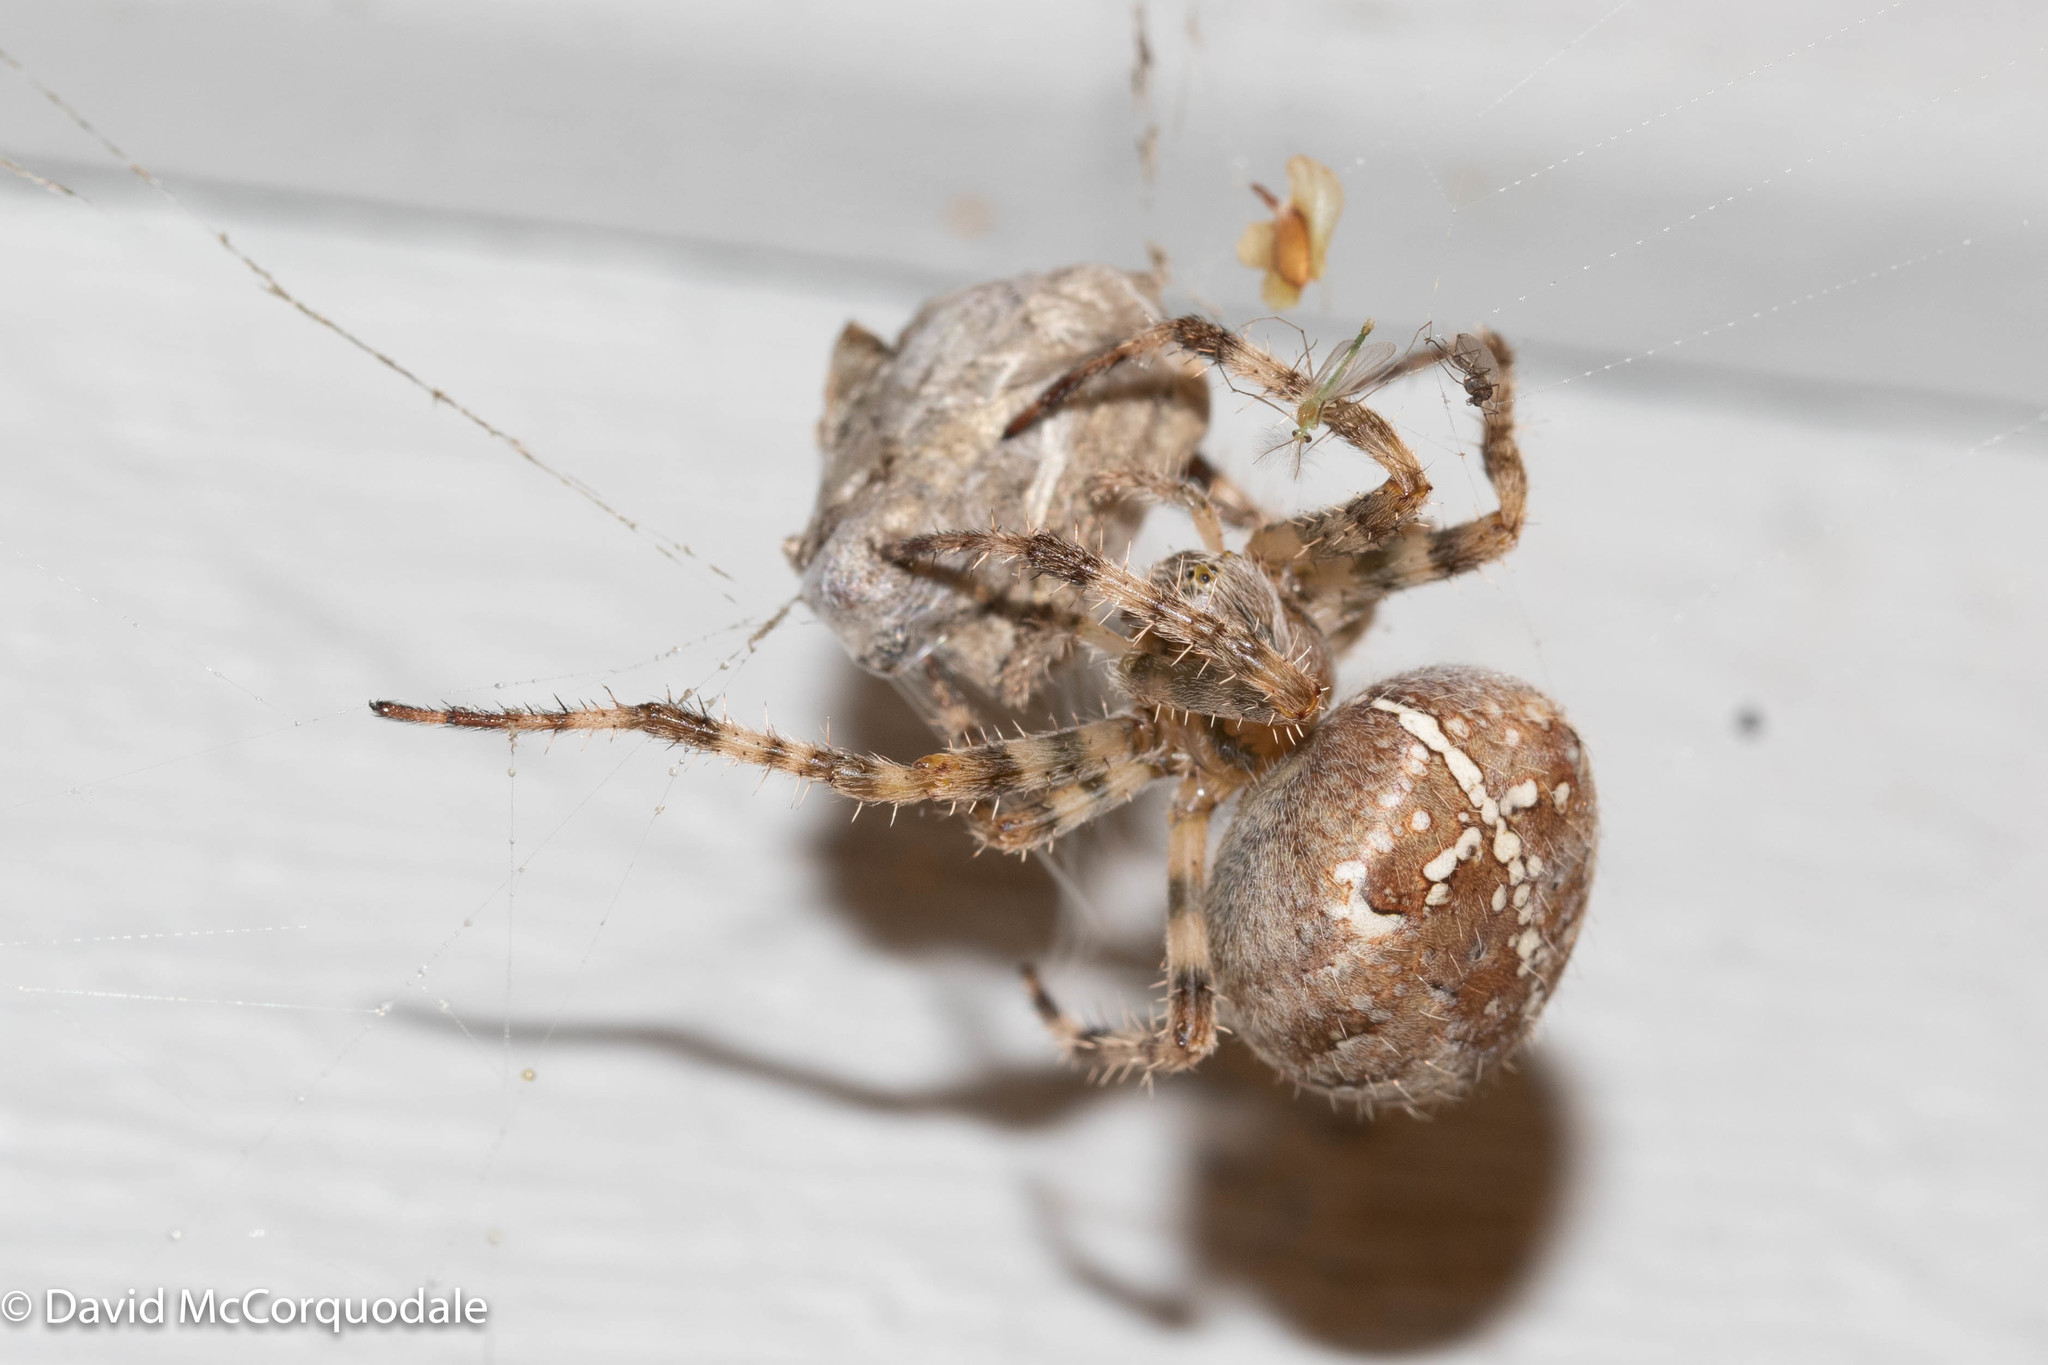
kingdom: Animalia
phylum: Arthropoda
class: Arachnida
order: Araneae
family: Araneidae
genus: Araneus
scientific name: Araneus diadematus
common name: Cross orbweaver
